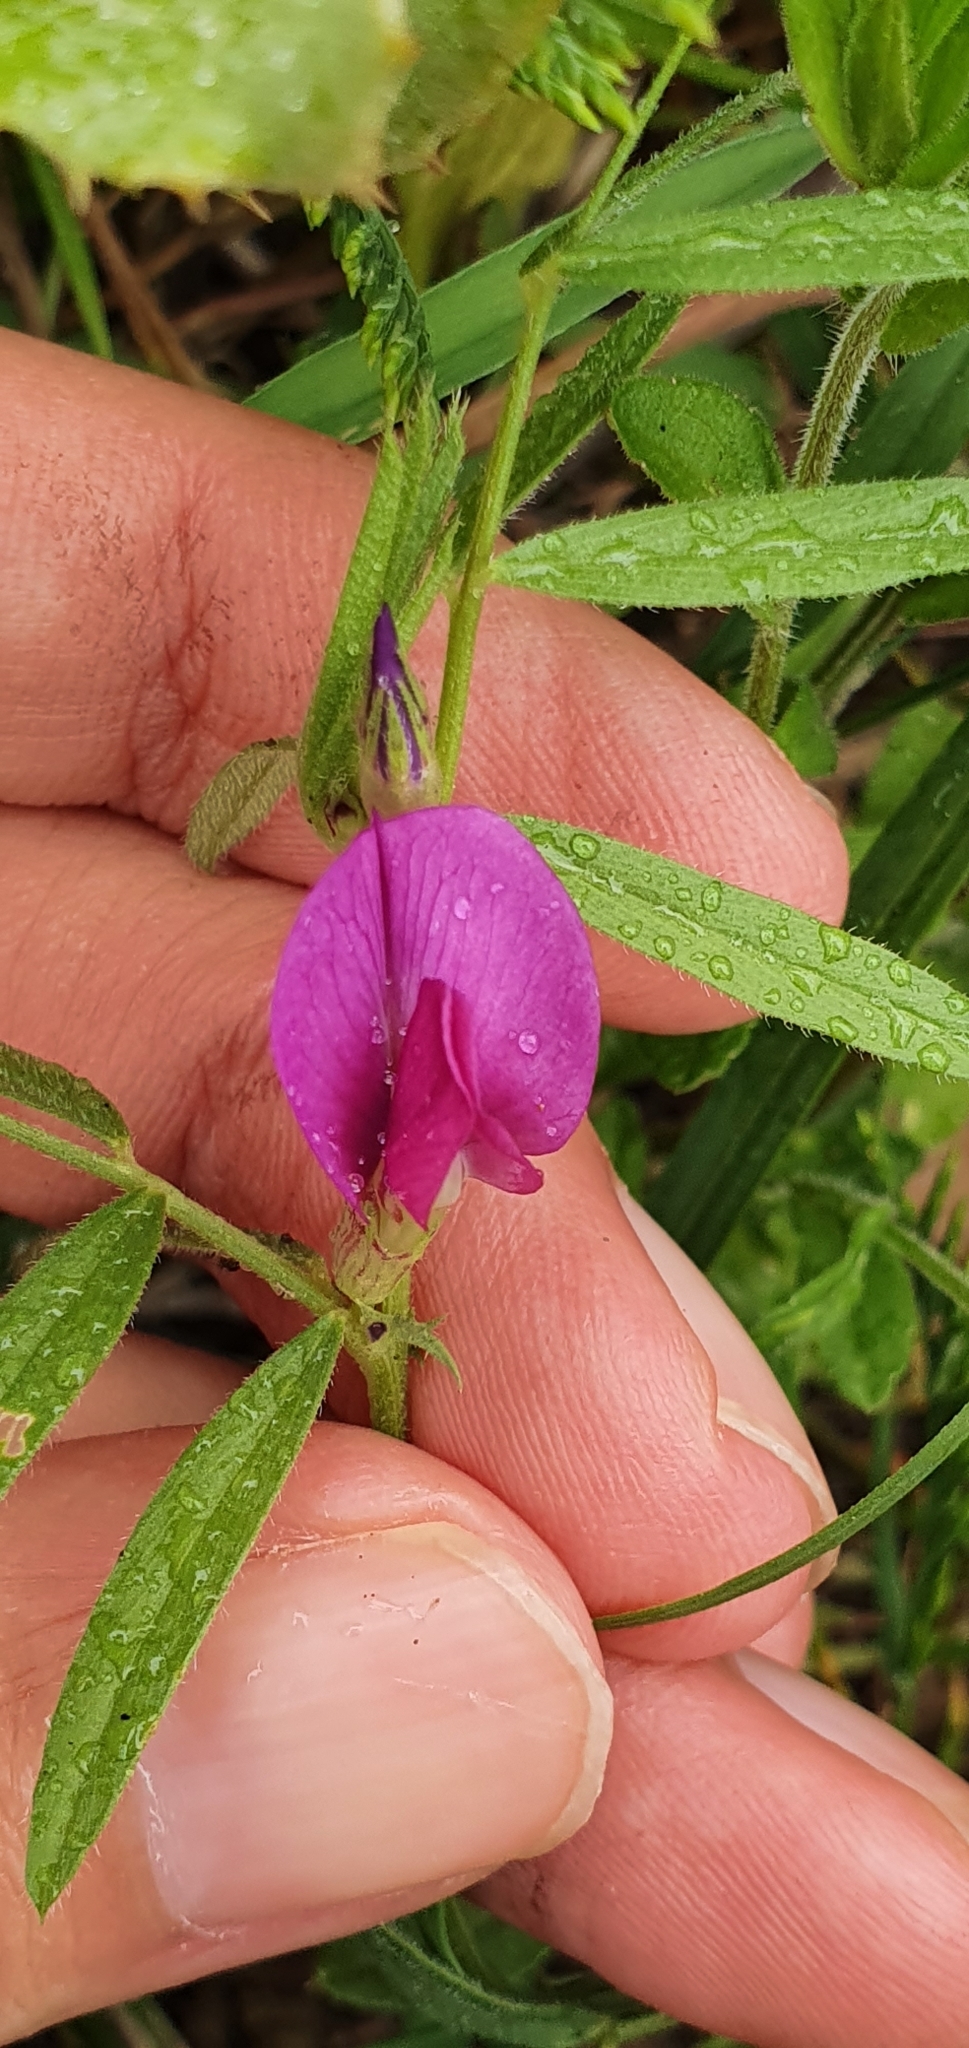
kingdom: Plantae
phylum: Tracheophyta
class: Magnoliopsida
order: Fabales
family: Fabaceae
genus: Vicia
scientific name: Vicia sativa
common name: Garden vetch
